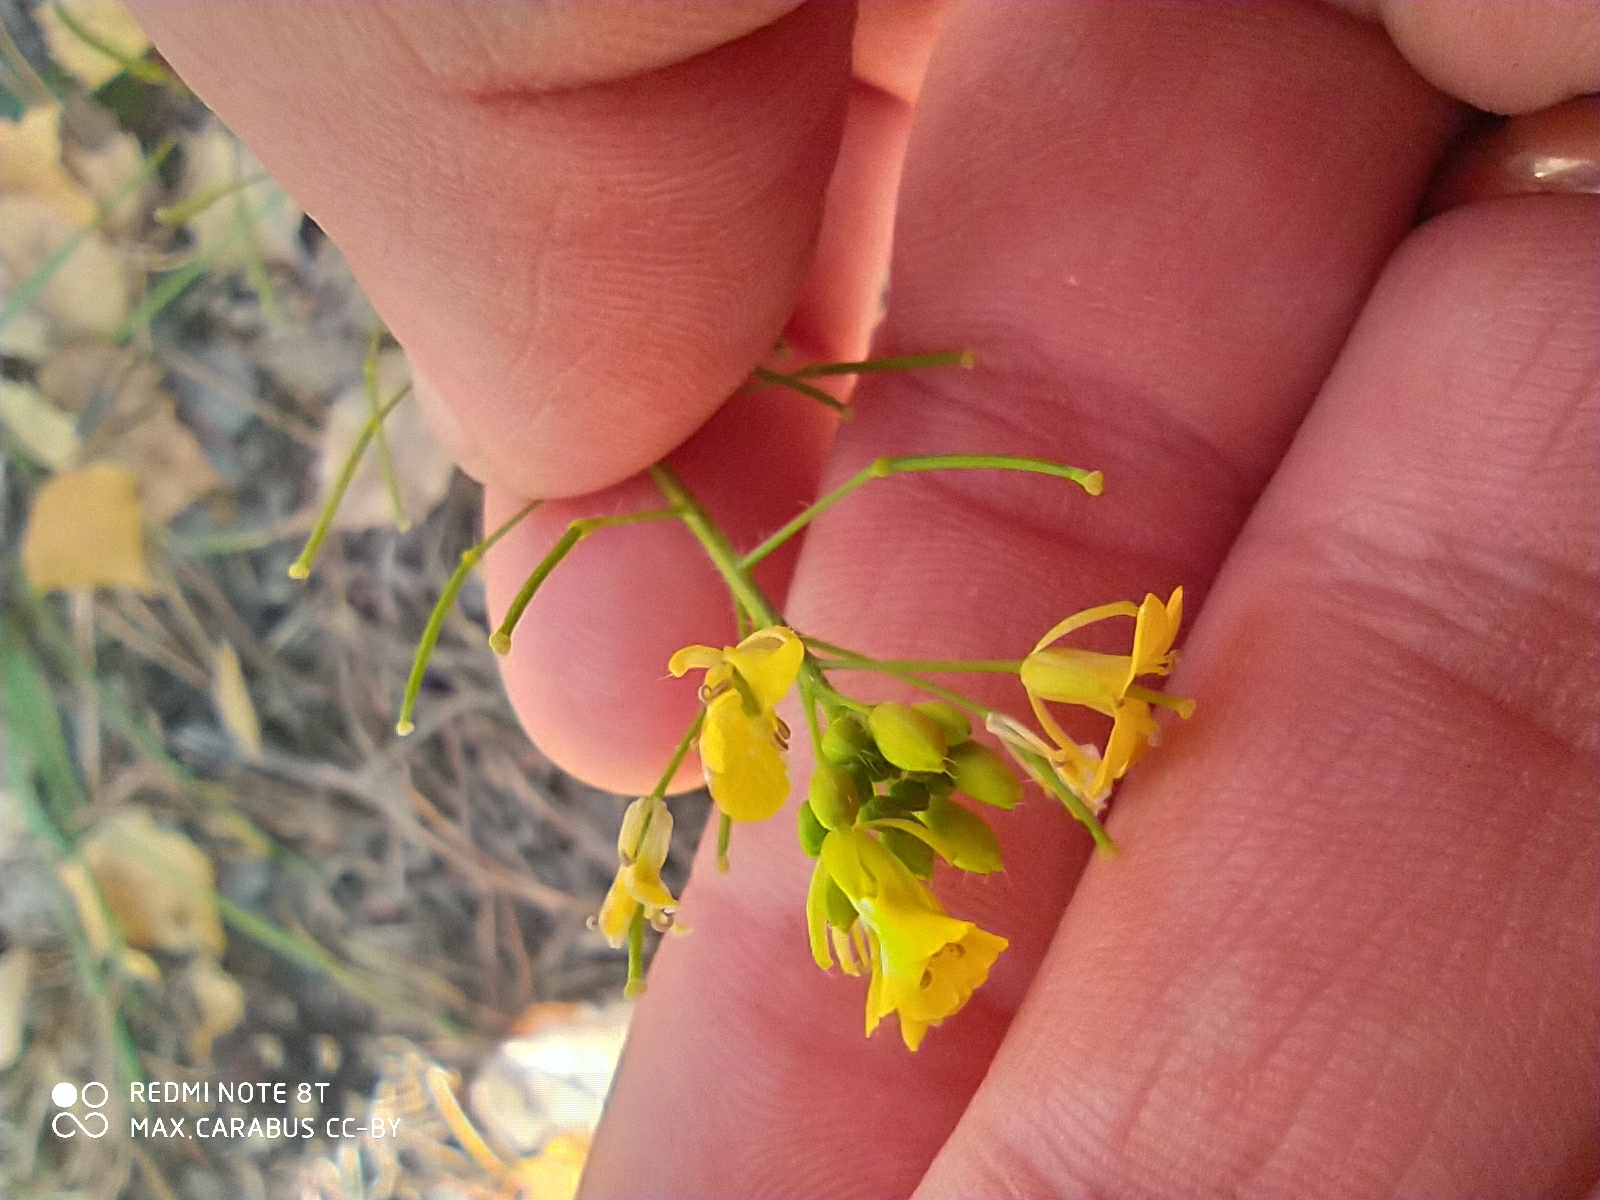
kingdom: Plantae
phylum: Tracheophyta
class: Magnoliopsida
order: Brassicales
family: Brassicaceae
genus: Sisymbrium
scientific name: Sisymbrium loeselii
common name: False london-rocket
